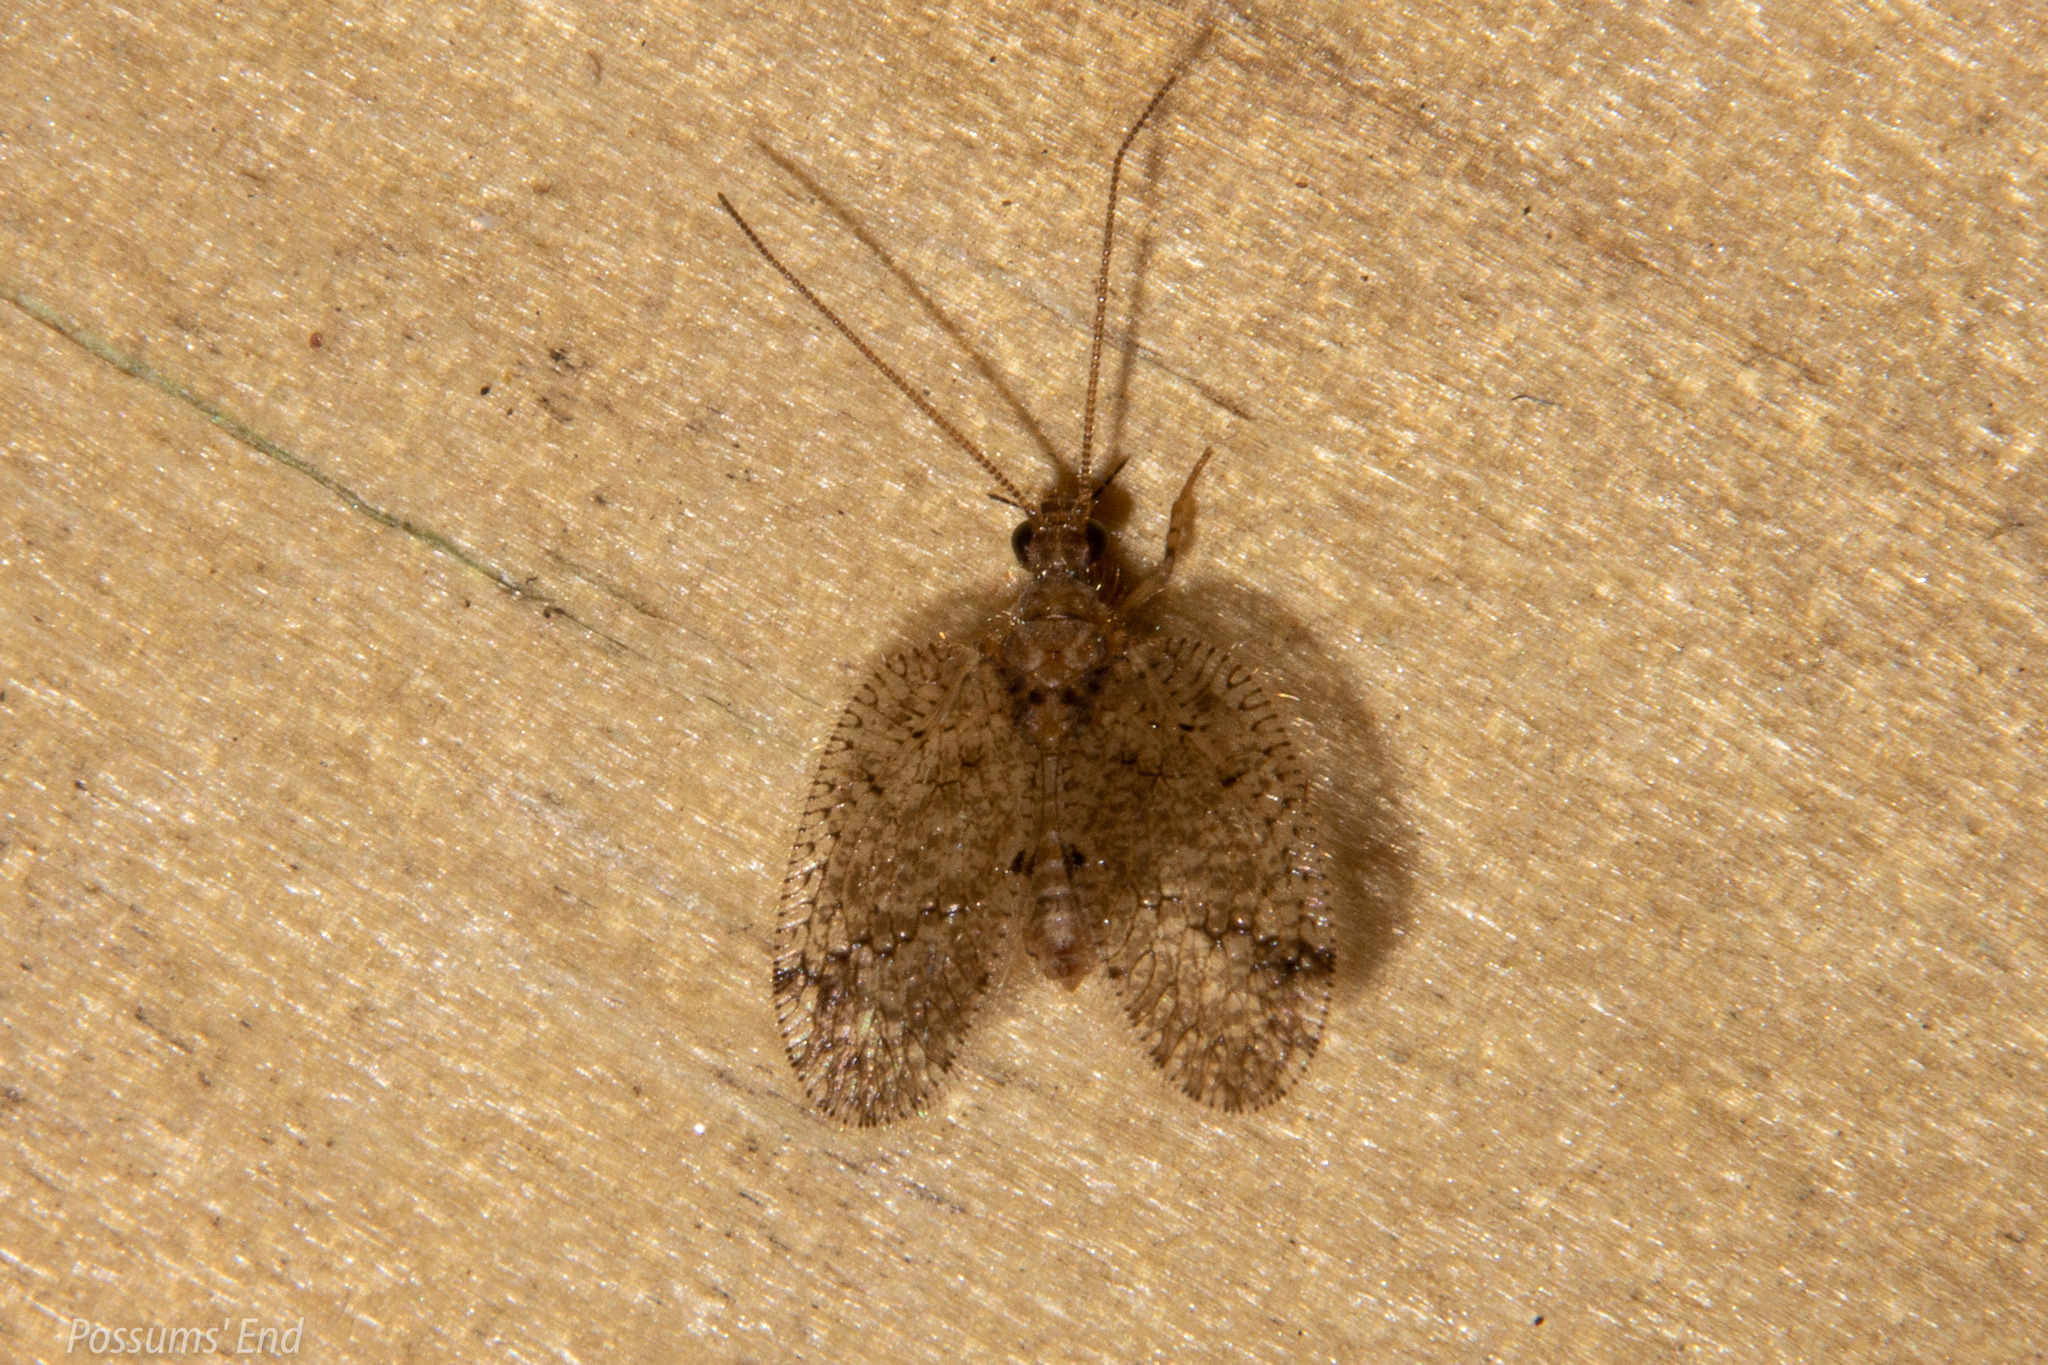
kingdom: Animalia
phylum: Arthropoda
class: Insecta
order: Neuroptera
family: Hemerobiidae
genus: Psectra
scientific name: Psectra nakaharai
